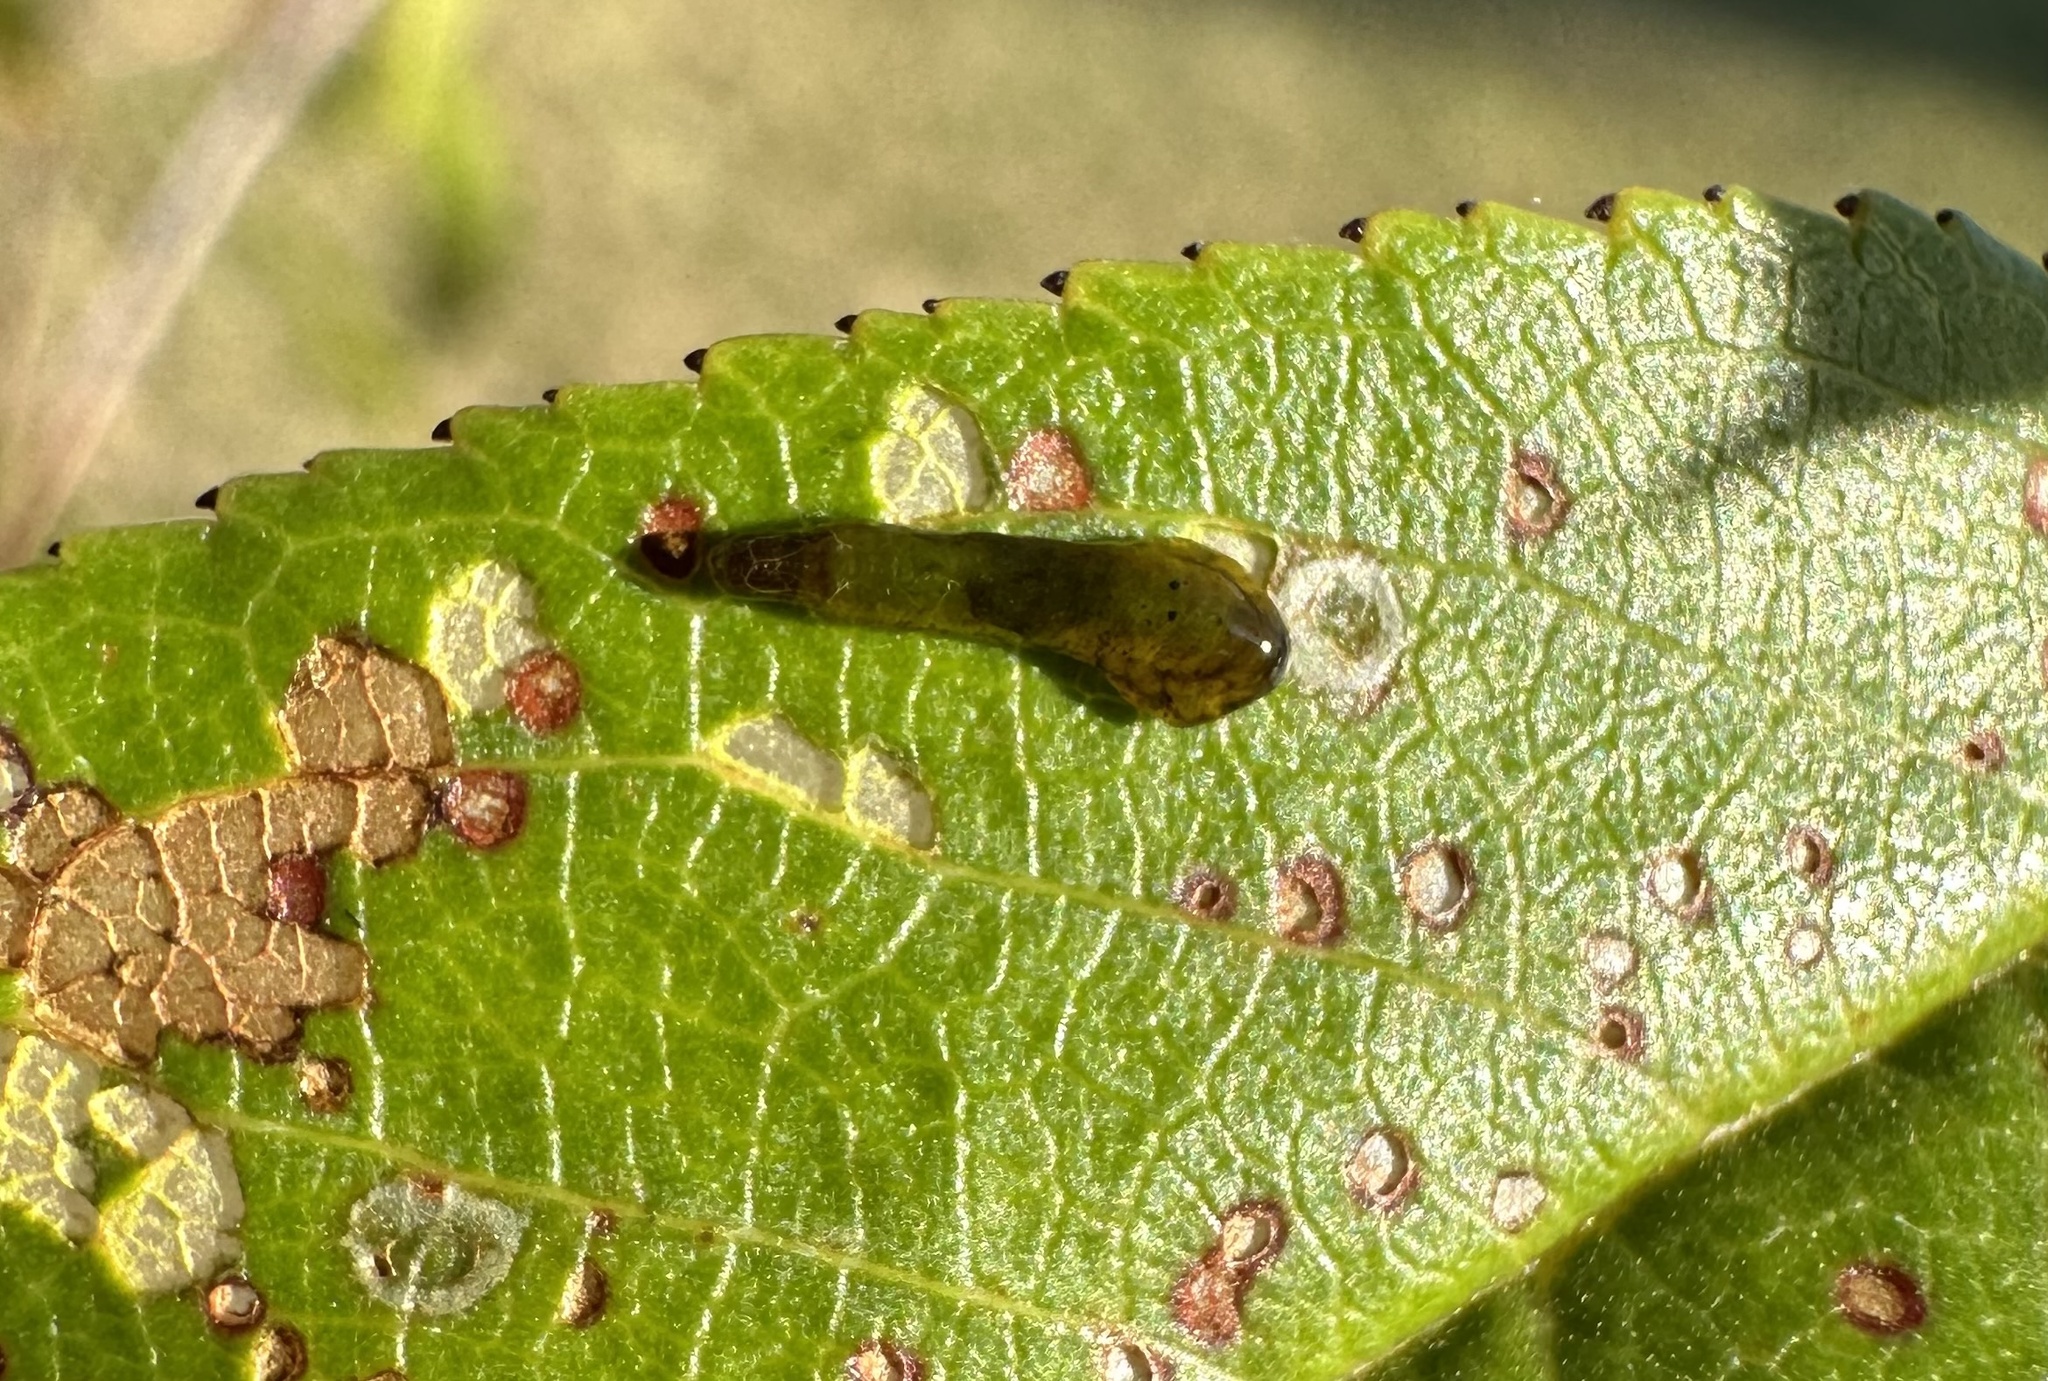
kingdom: Animalia
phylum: Arthropoda
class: Insecta
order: Hymenoptera
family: Tenthredinidae
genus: Caliroa
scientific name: Caliroa cerasi
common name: Pear sawfly
